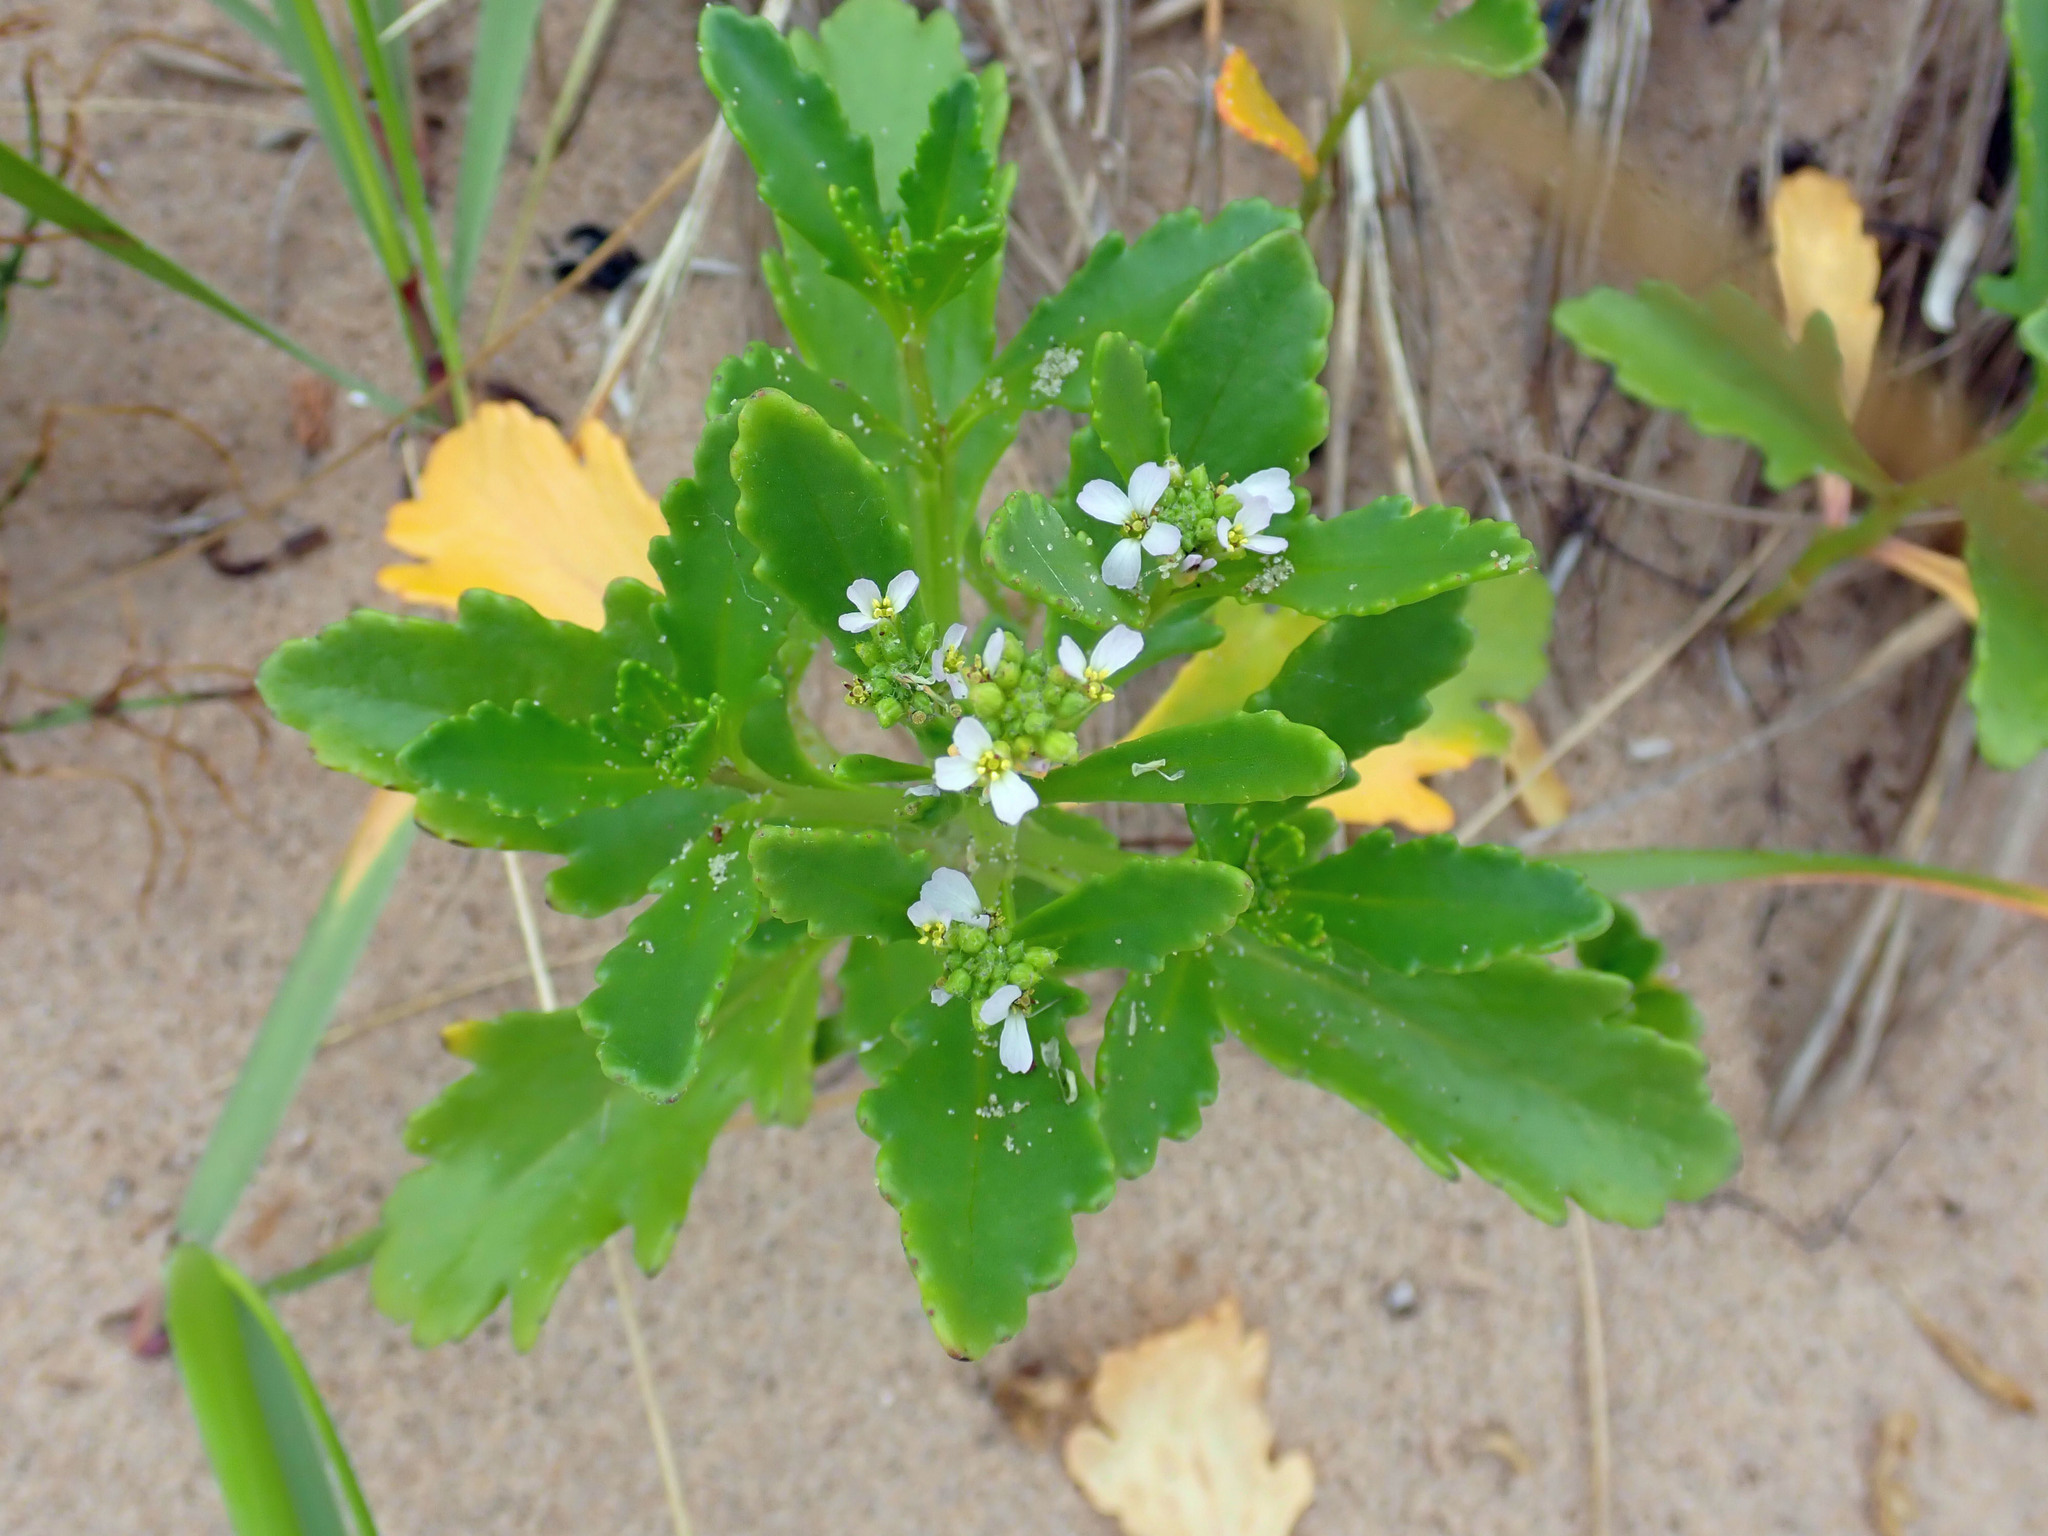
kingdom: Plantae
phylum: Tracheophyta
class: Magnoliopsida
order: Brassicales
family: Brassicaceae
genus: Cakile
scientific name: Cakile edentula
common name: American sea rocket
